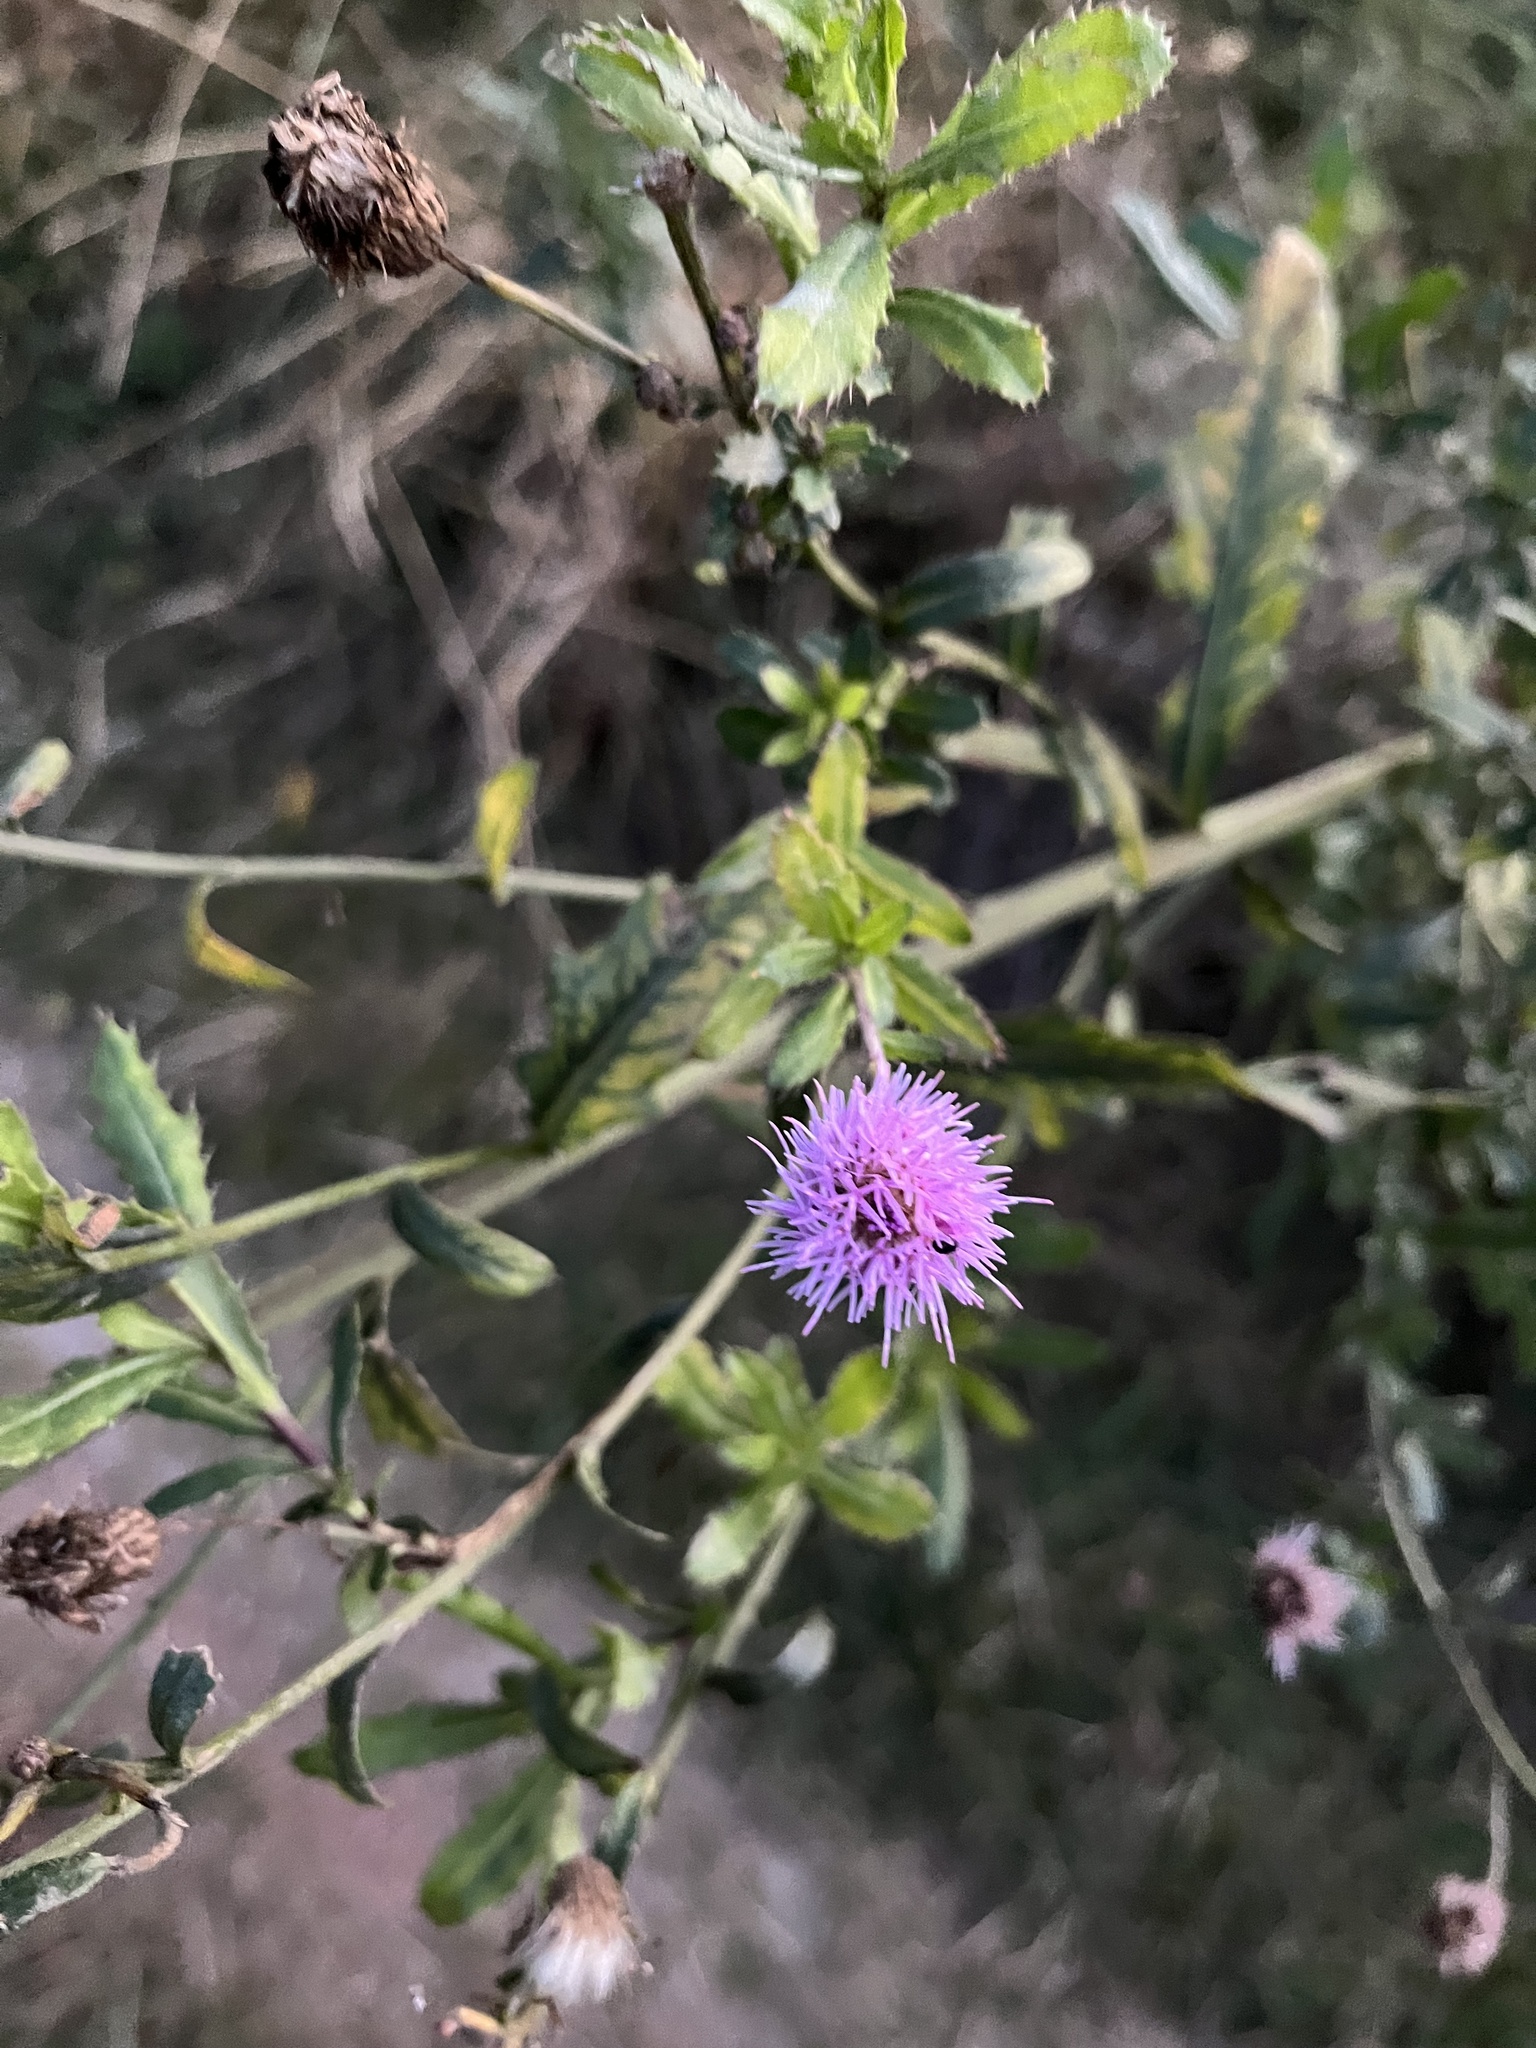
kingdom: Plantae
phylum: Tracheophyta
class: Magnoliopsida
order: Asterales
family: Asteraceae
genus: Cirsium
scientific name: Cirsium arvense
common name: Creeping thistle
